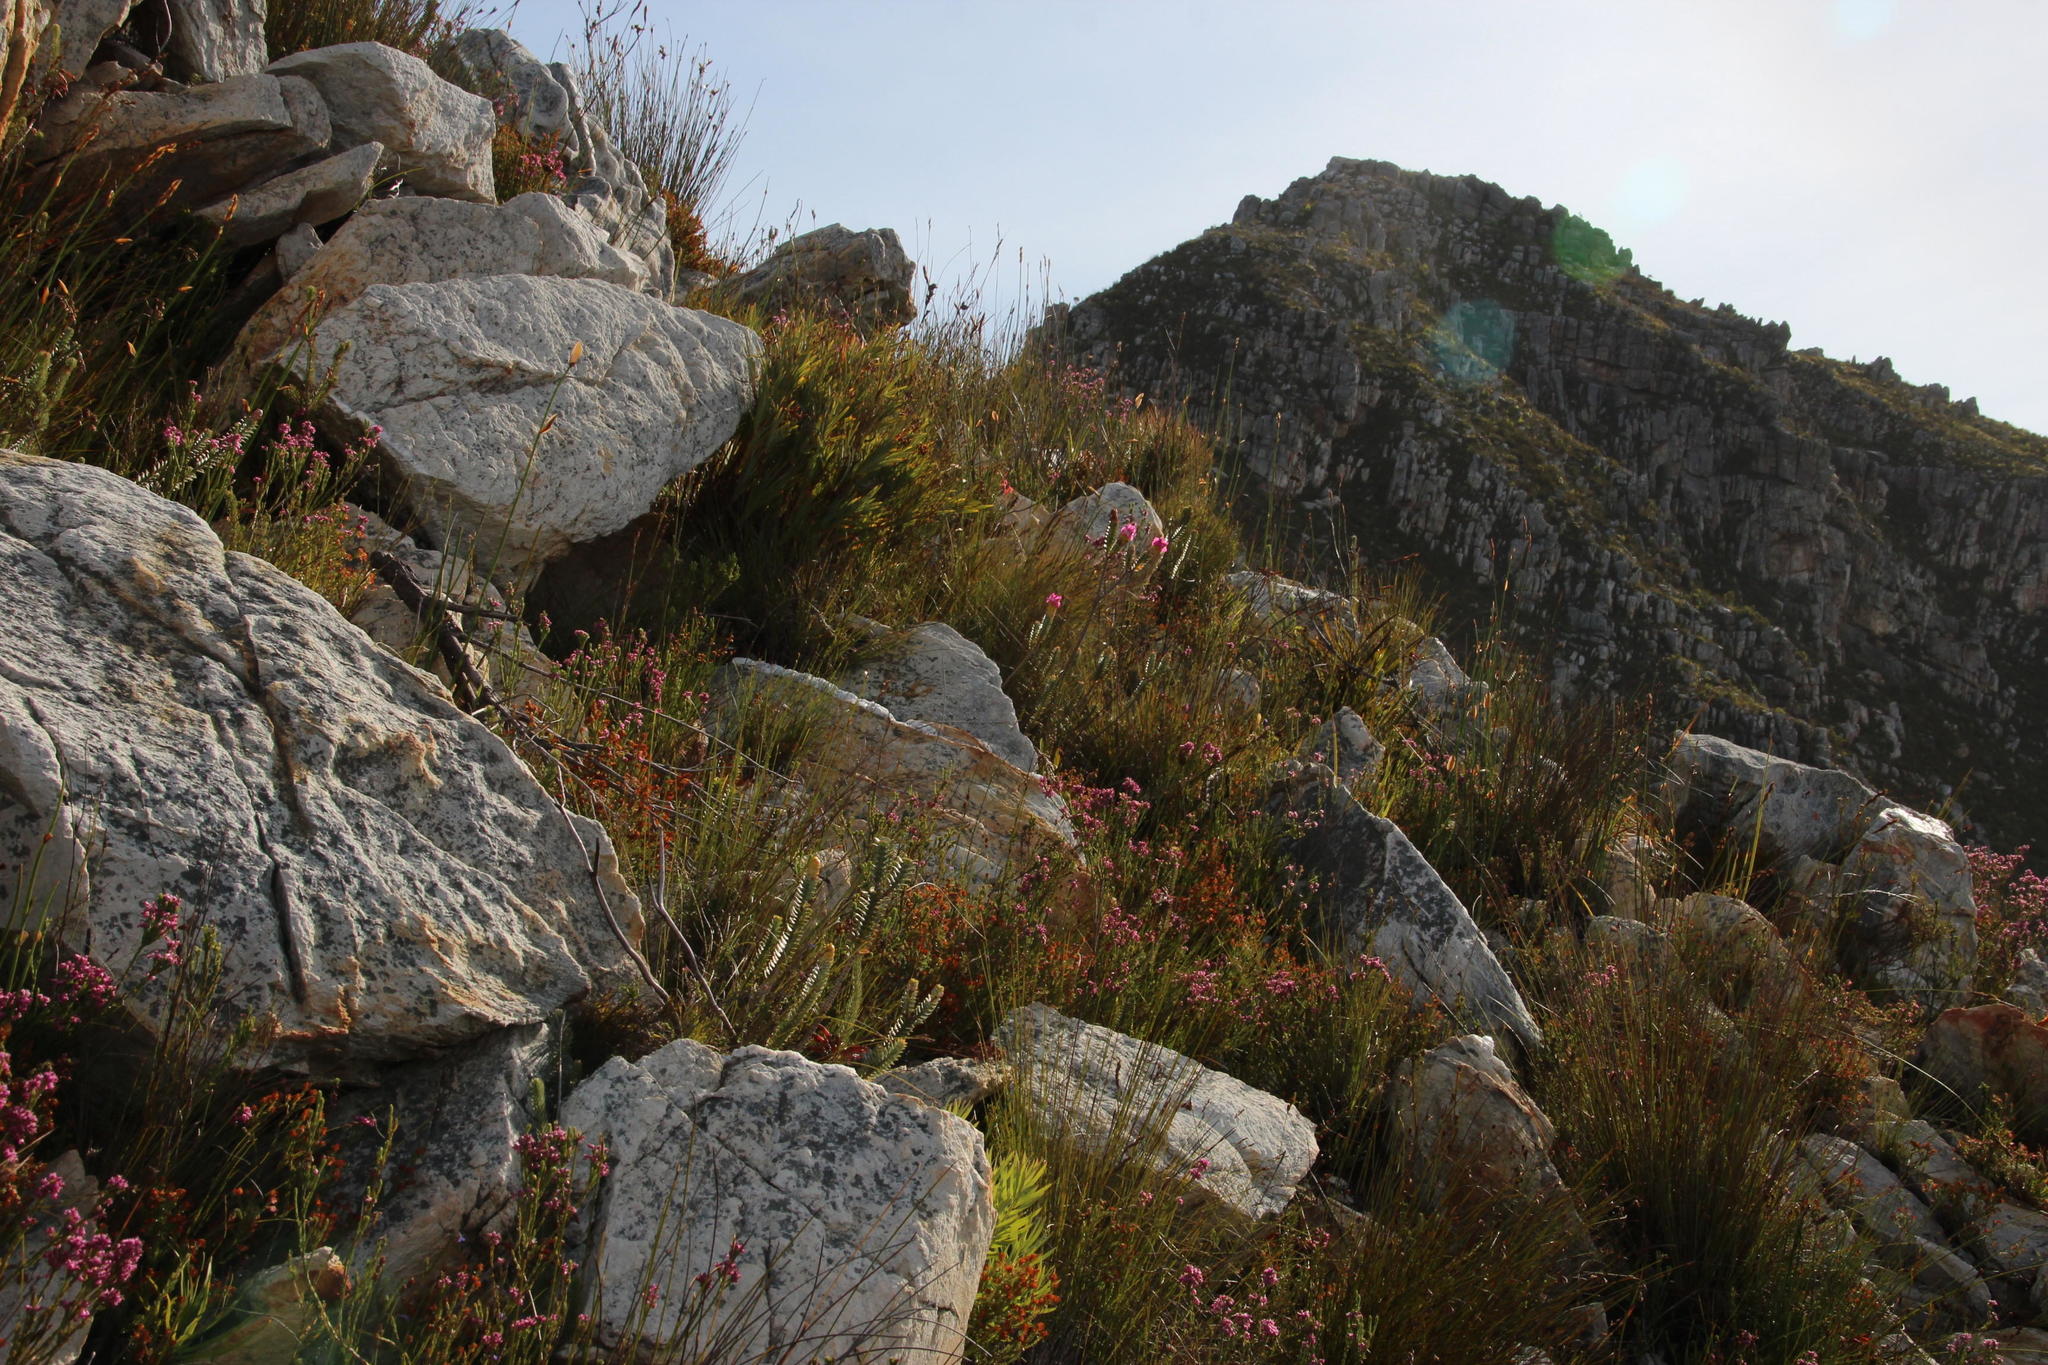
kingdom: Plantae
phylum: Tracheophyta
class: Magnoliopsida
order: Myrtales
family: Penaeaceae
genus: Saltera
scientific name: Saltera sarcocolla
